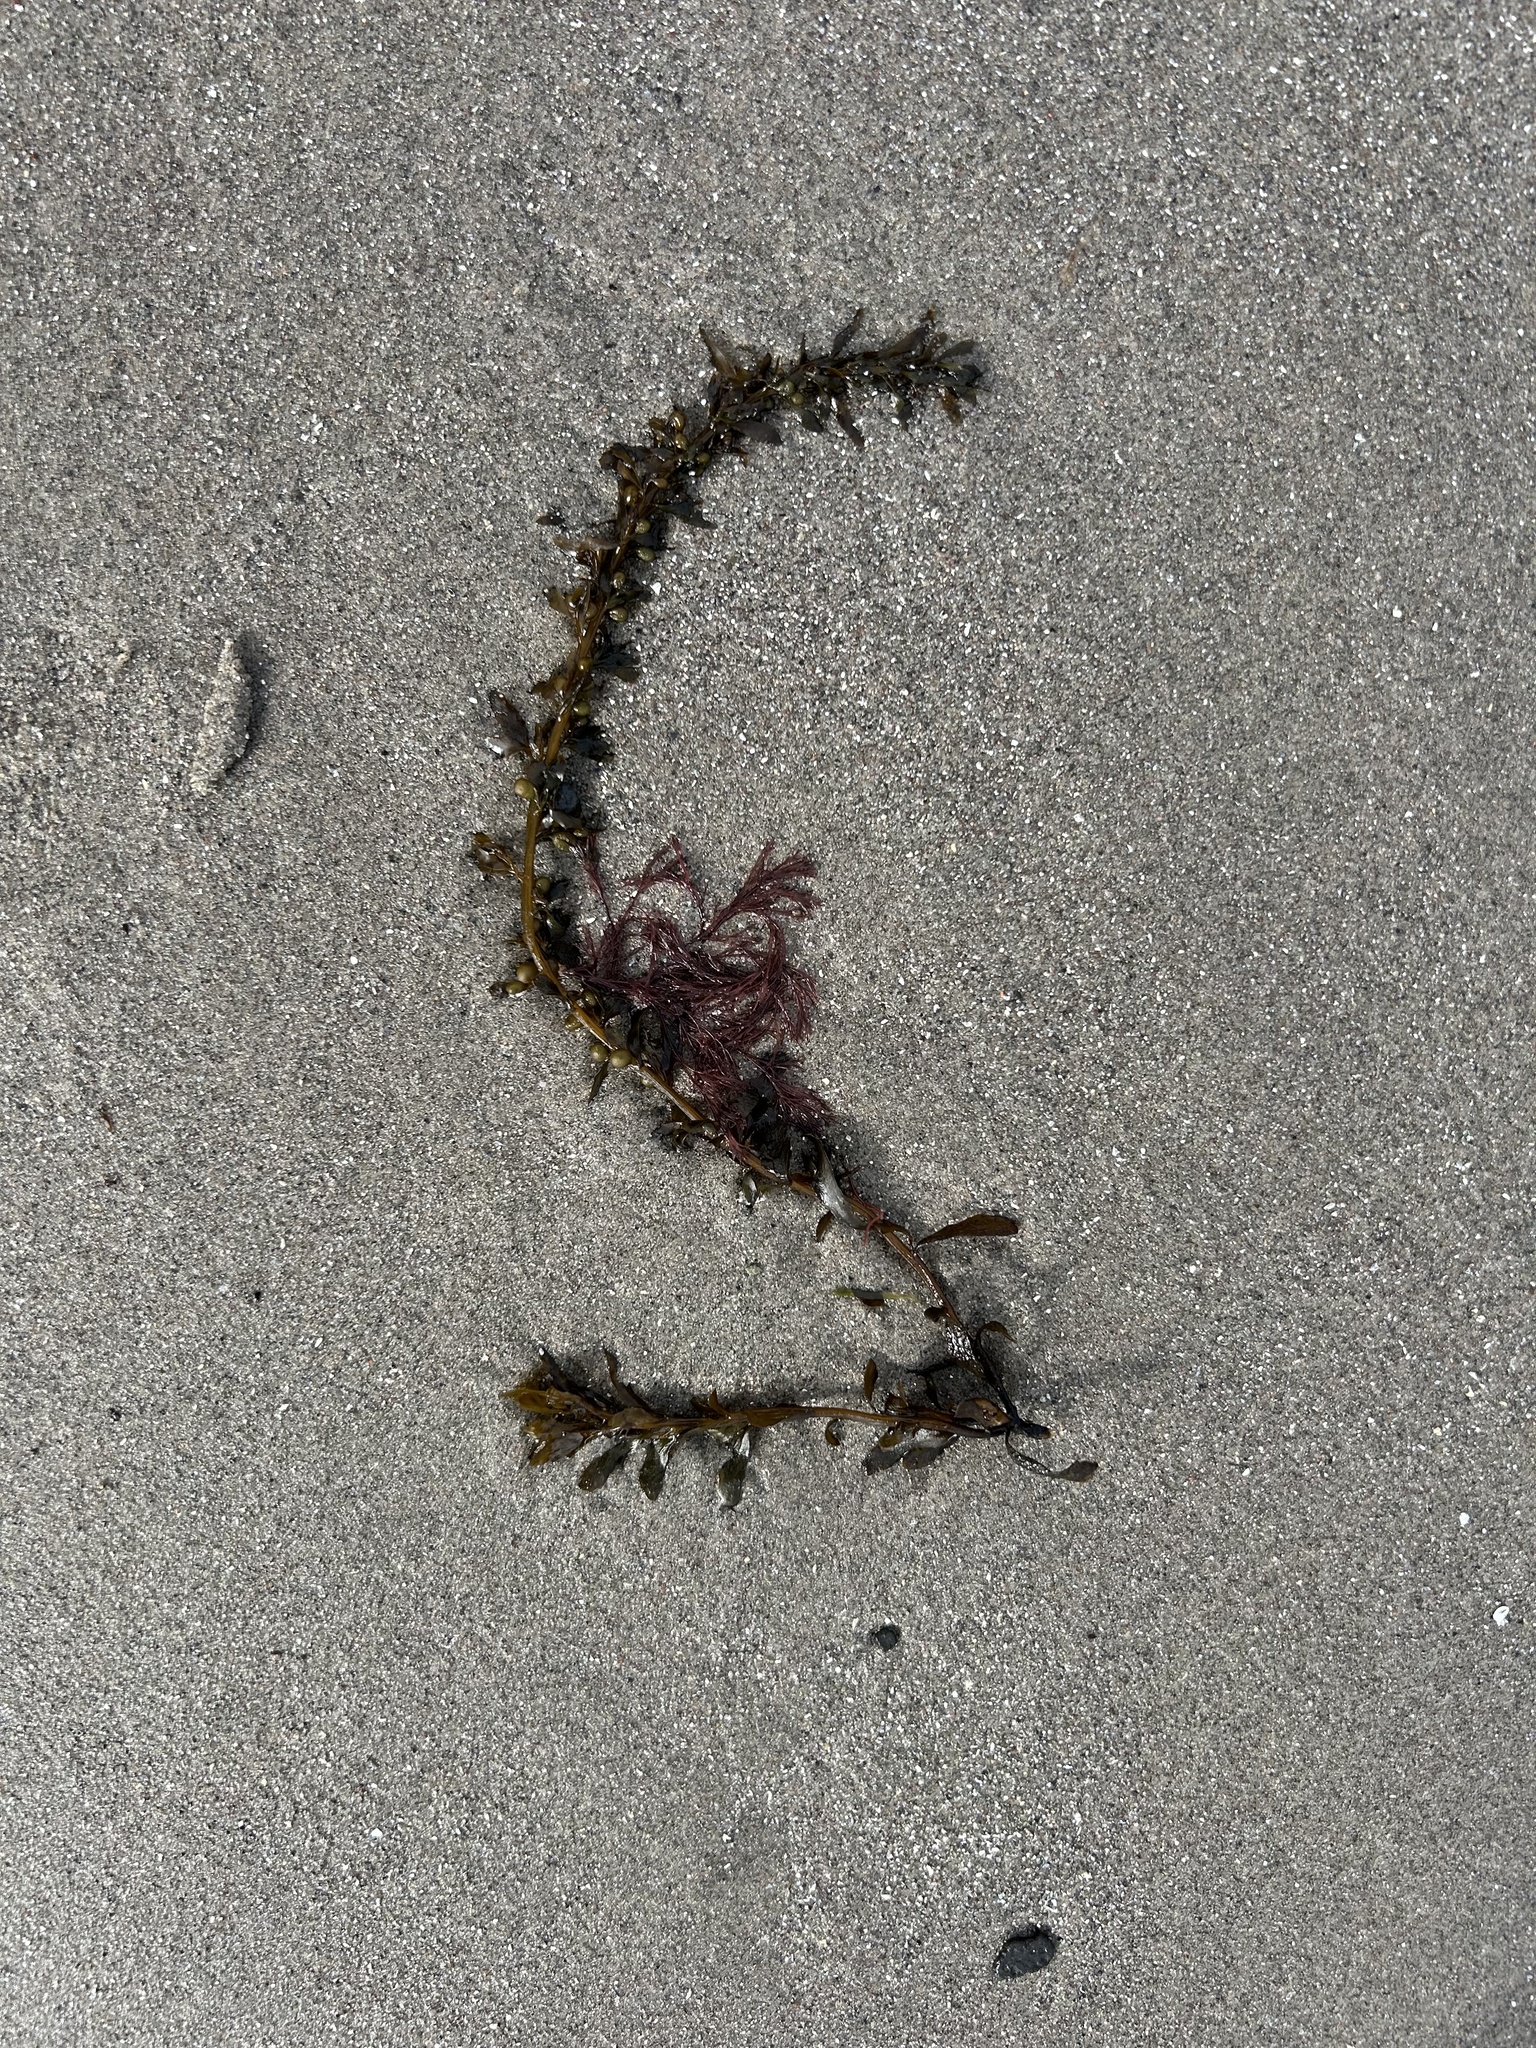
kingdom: Chromista
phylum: Ochrophyta
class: Phaeophyceae
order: Fucales
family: Sargassaceae
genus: Sargassum
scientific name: Sargassum muticum
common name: Japweed
